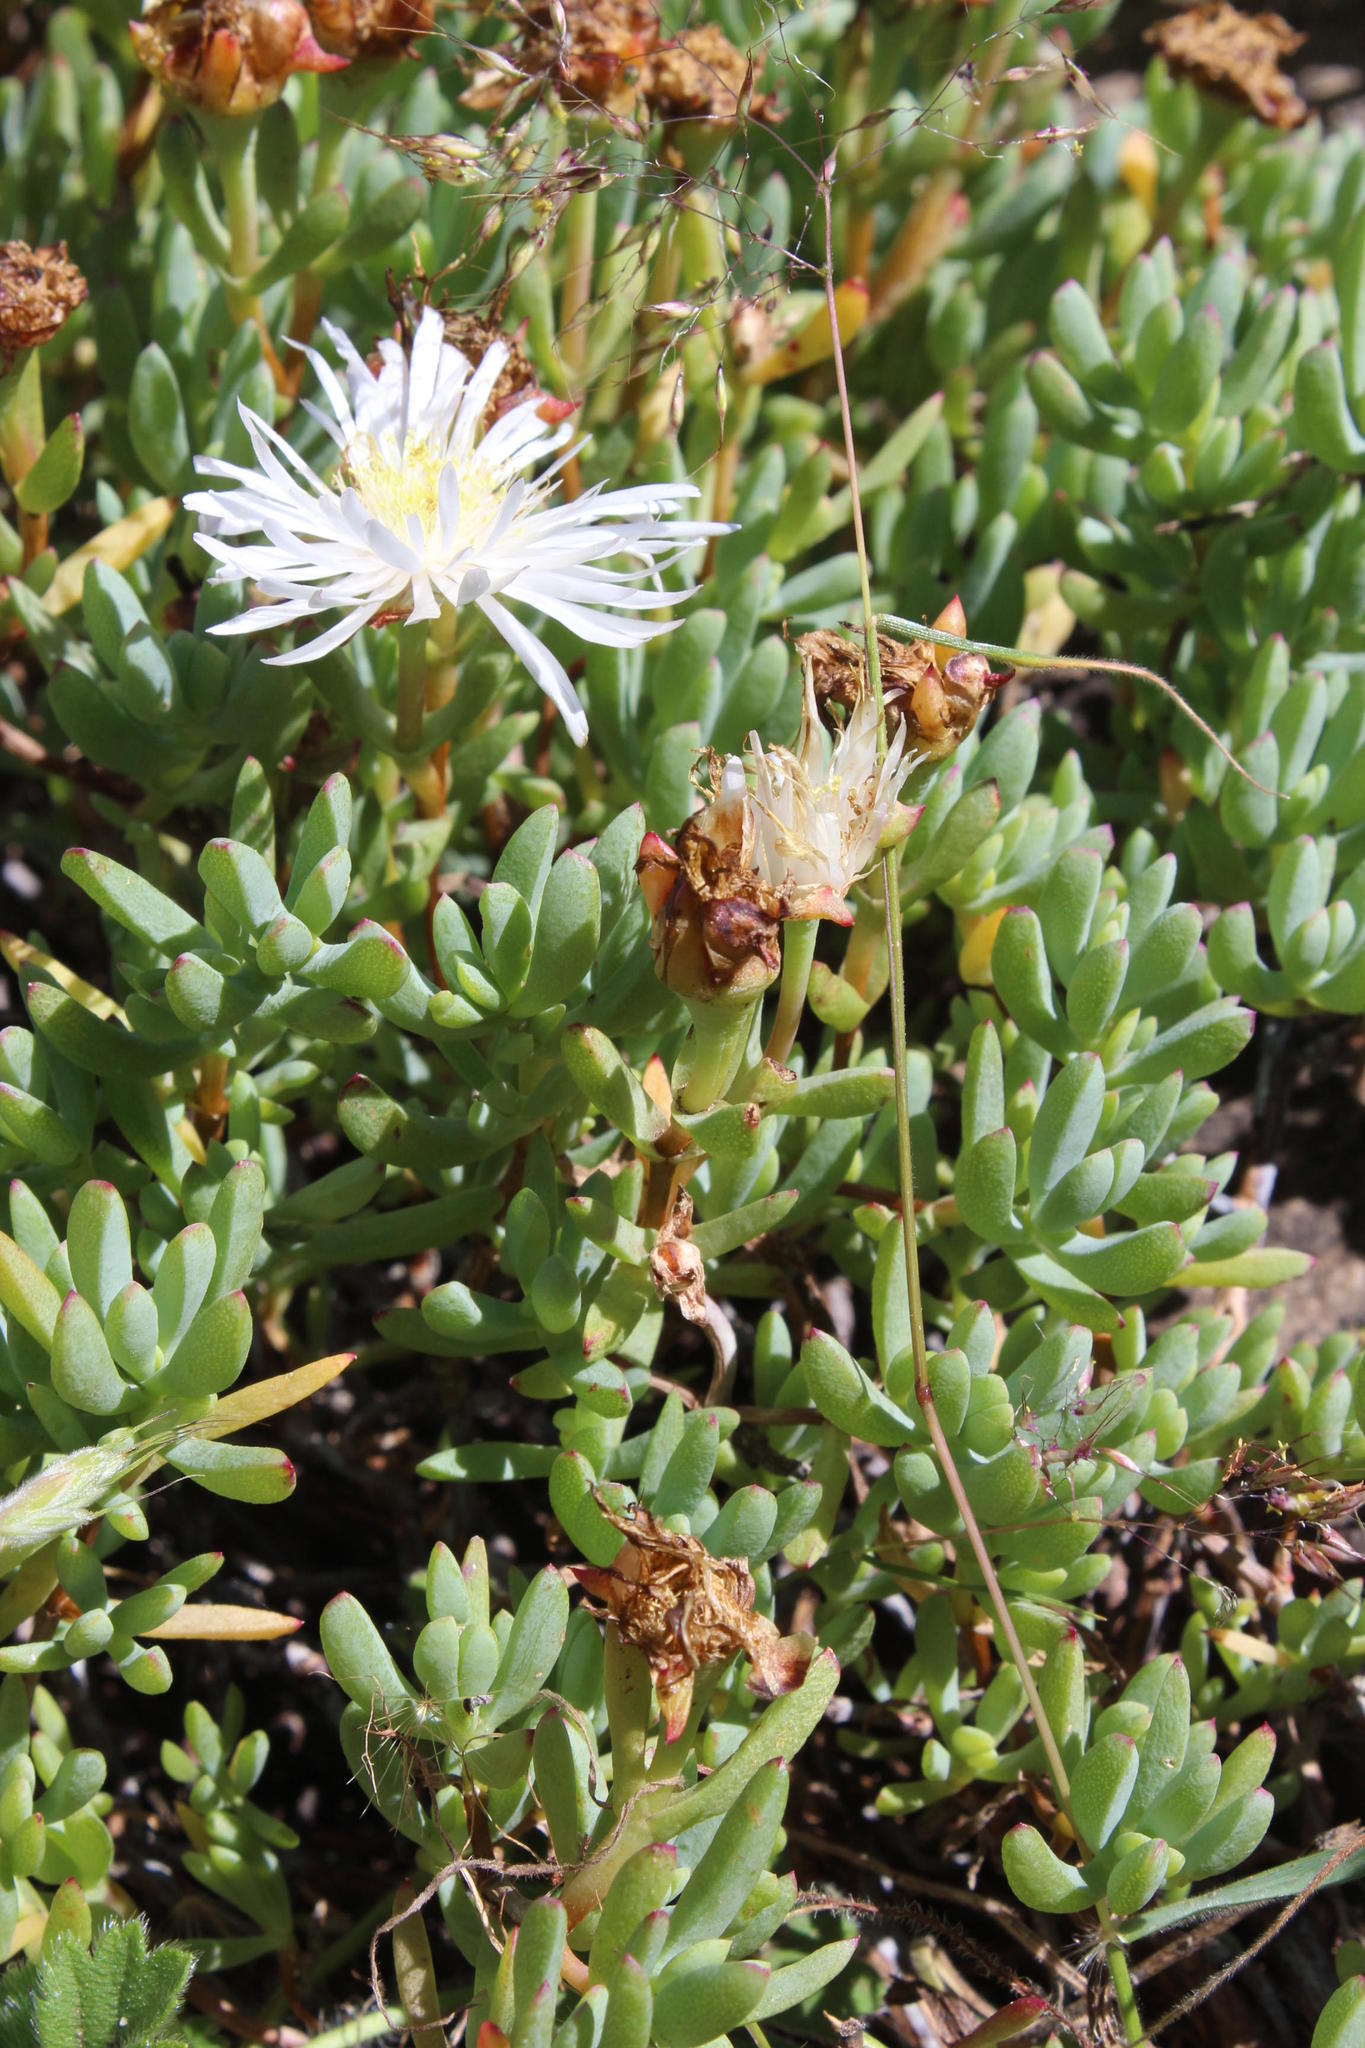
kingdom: Plantae
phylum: Tracheophyta
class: Magnoliopsida
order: Caryophyllales
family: Aizoaceae
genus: Oscularia
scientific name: Oscularia falciformis
